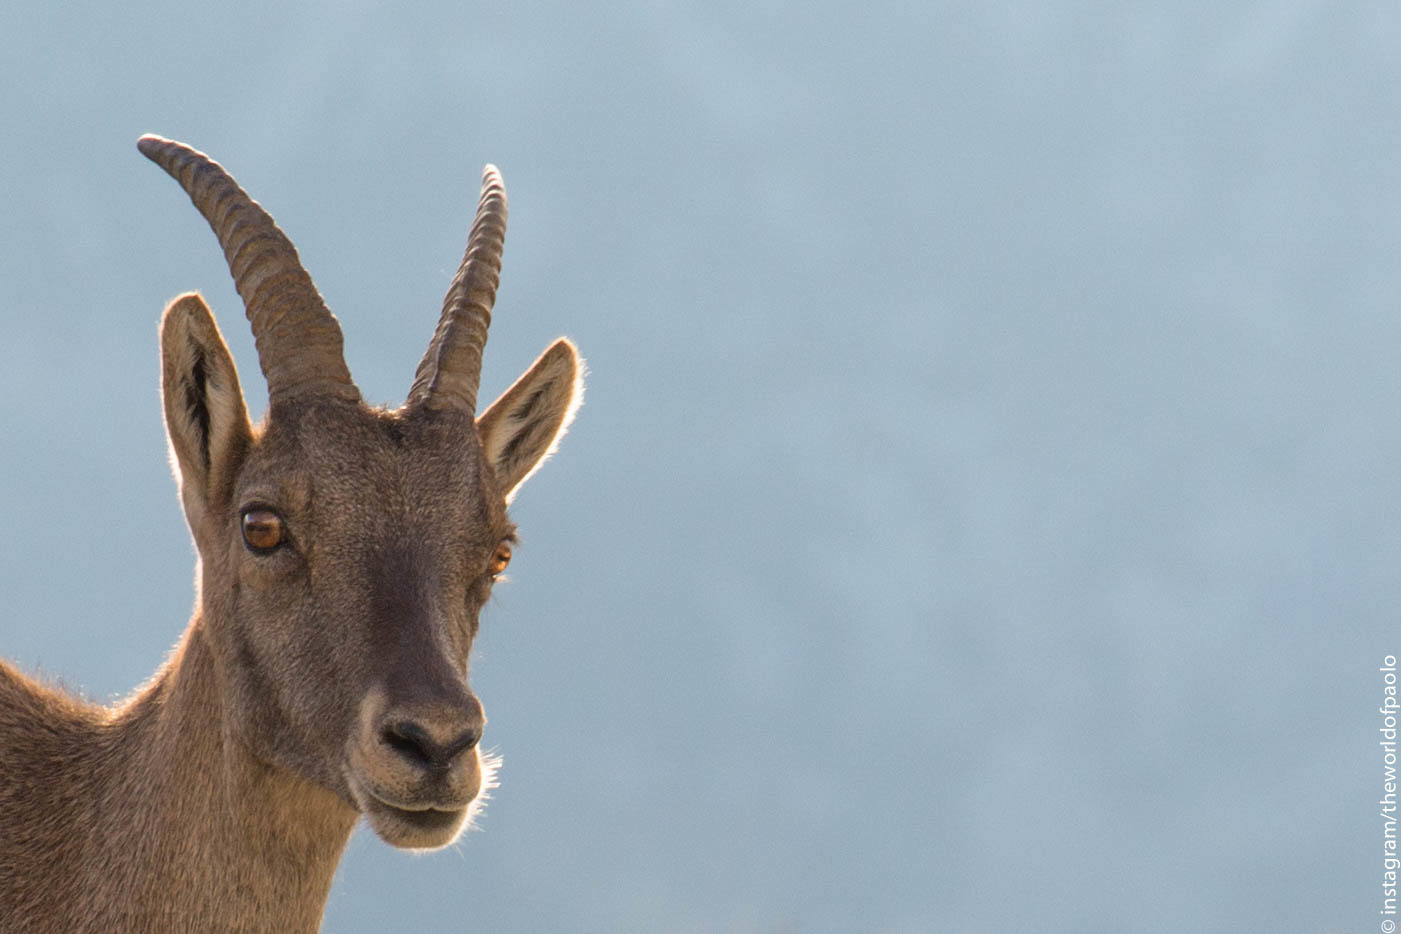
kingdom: Animalia
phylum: Chordata
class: Mammalia
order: Artiodactyla
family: Bovidae
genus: Capra
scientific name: Capra ibex
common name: Alpine ibex
